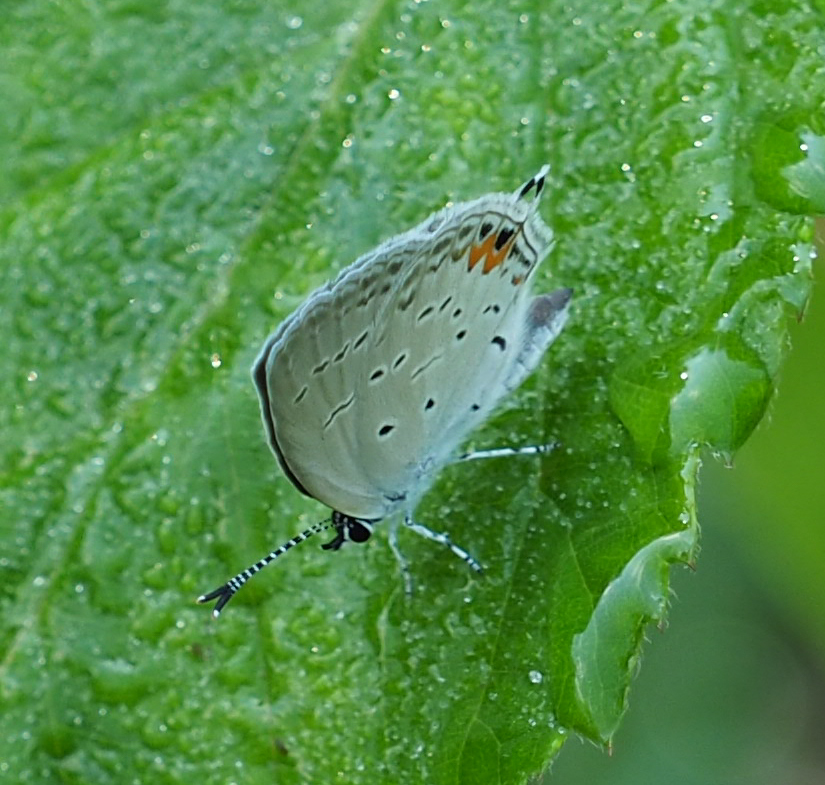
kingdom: Animalia
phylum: Arthropoda
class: Insecta
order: Lepidoptera
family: Lycaenidae
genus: Elkalyce
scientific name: Elkalyce comyntas
